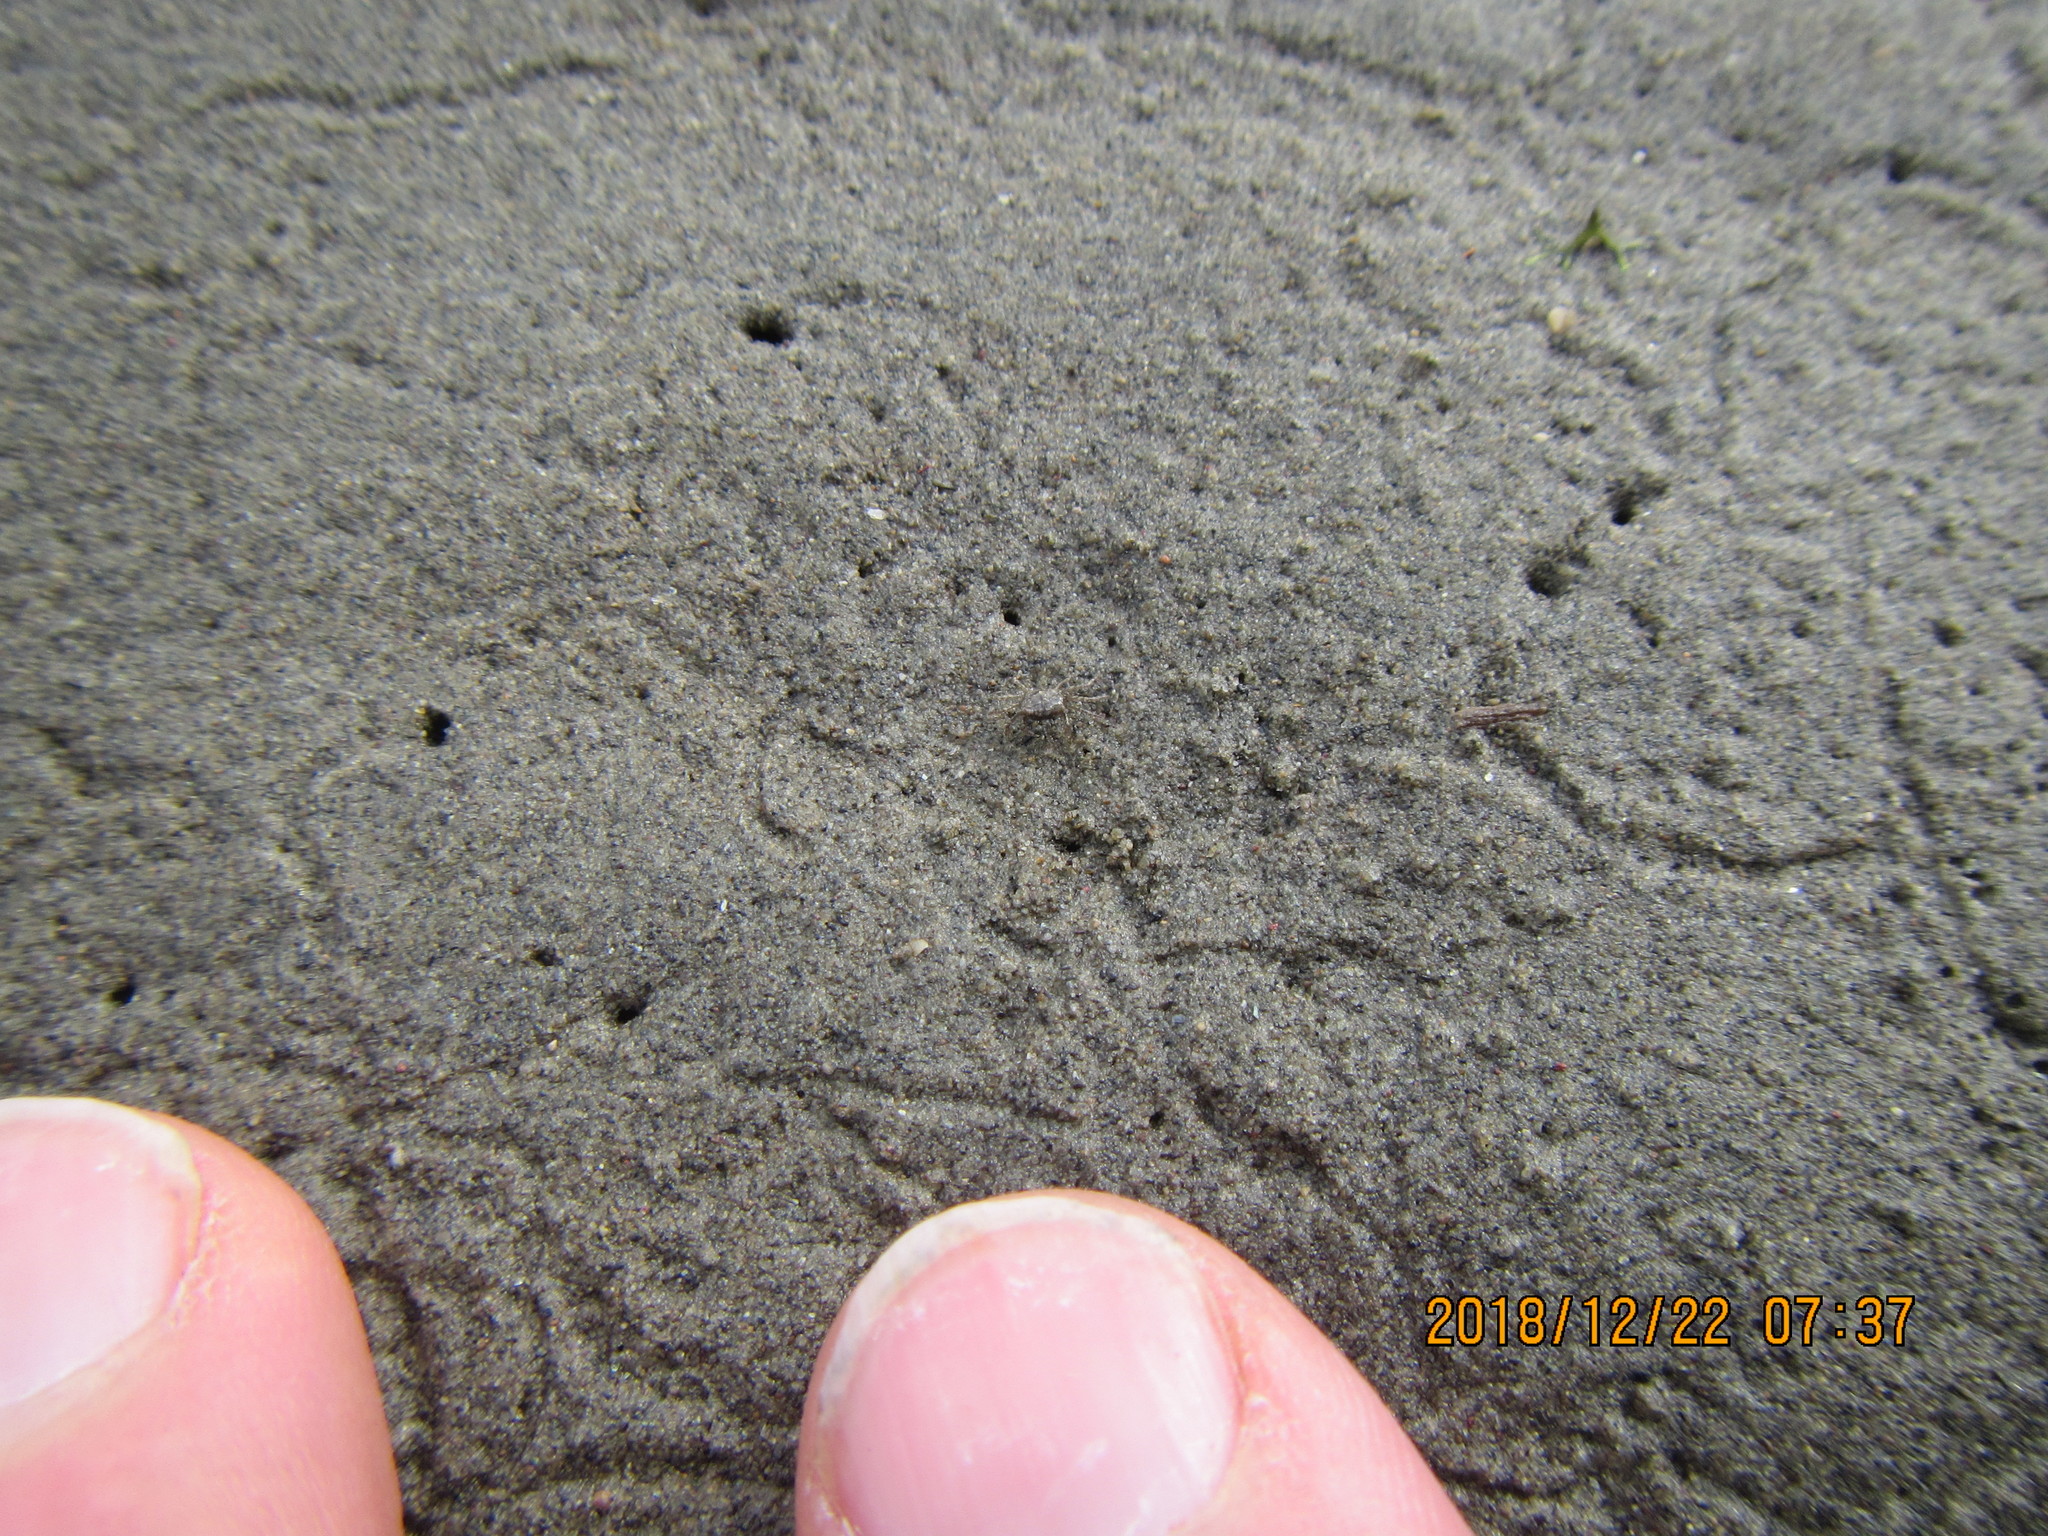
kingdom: Animalia
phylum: Arthropoda
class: Malacostraca
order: Decapoda
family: Varunidae
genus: Austrohelice
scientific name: Austrohelice crassa
